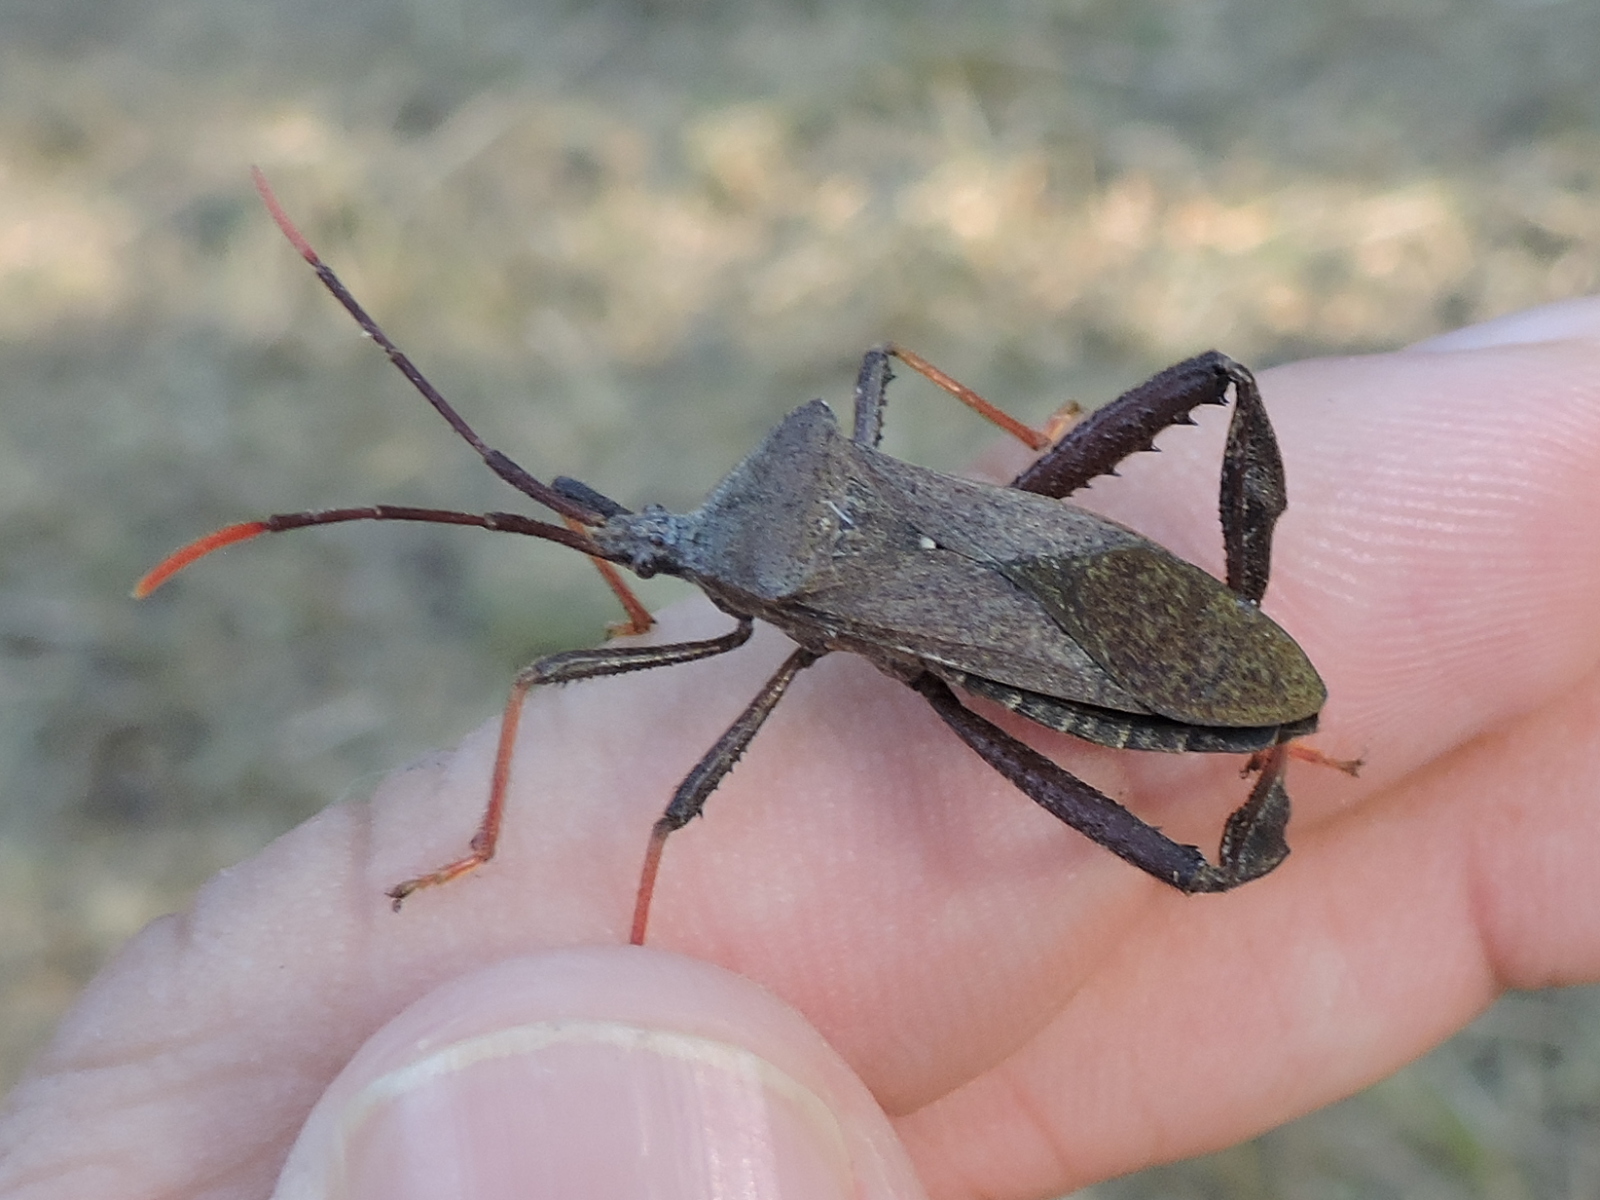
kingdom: Animalia
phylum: Arthropoda
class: Insecta
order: Hemiptera
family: Coreidae
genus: Acanthocephala
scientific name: Acanthocephala terminalis
